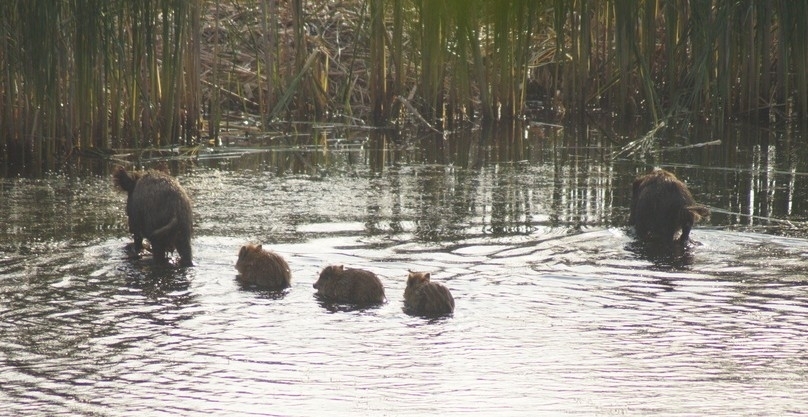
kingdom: Animalia
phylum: Chordata
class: Mammalia
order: Artiodactyla
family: Suidae
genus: Sus
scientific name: Sus scrofa
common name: Wild boar
